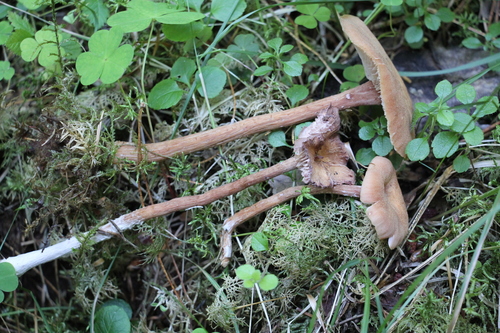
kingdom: Fungi
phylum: Basidiomycota
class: Agaricomycetes
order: Agaricales
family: Hydnangiaceae
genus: Laccaria
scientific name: Laccaria proxima
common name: Scurfy deceiver
